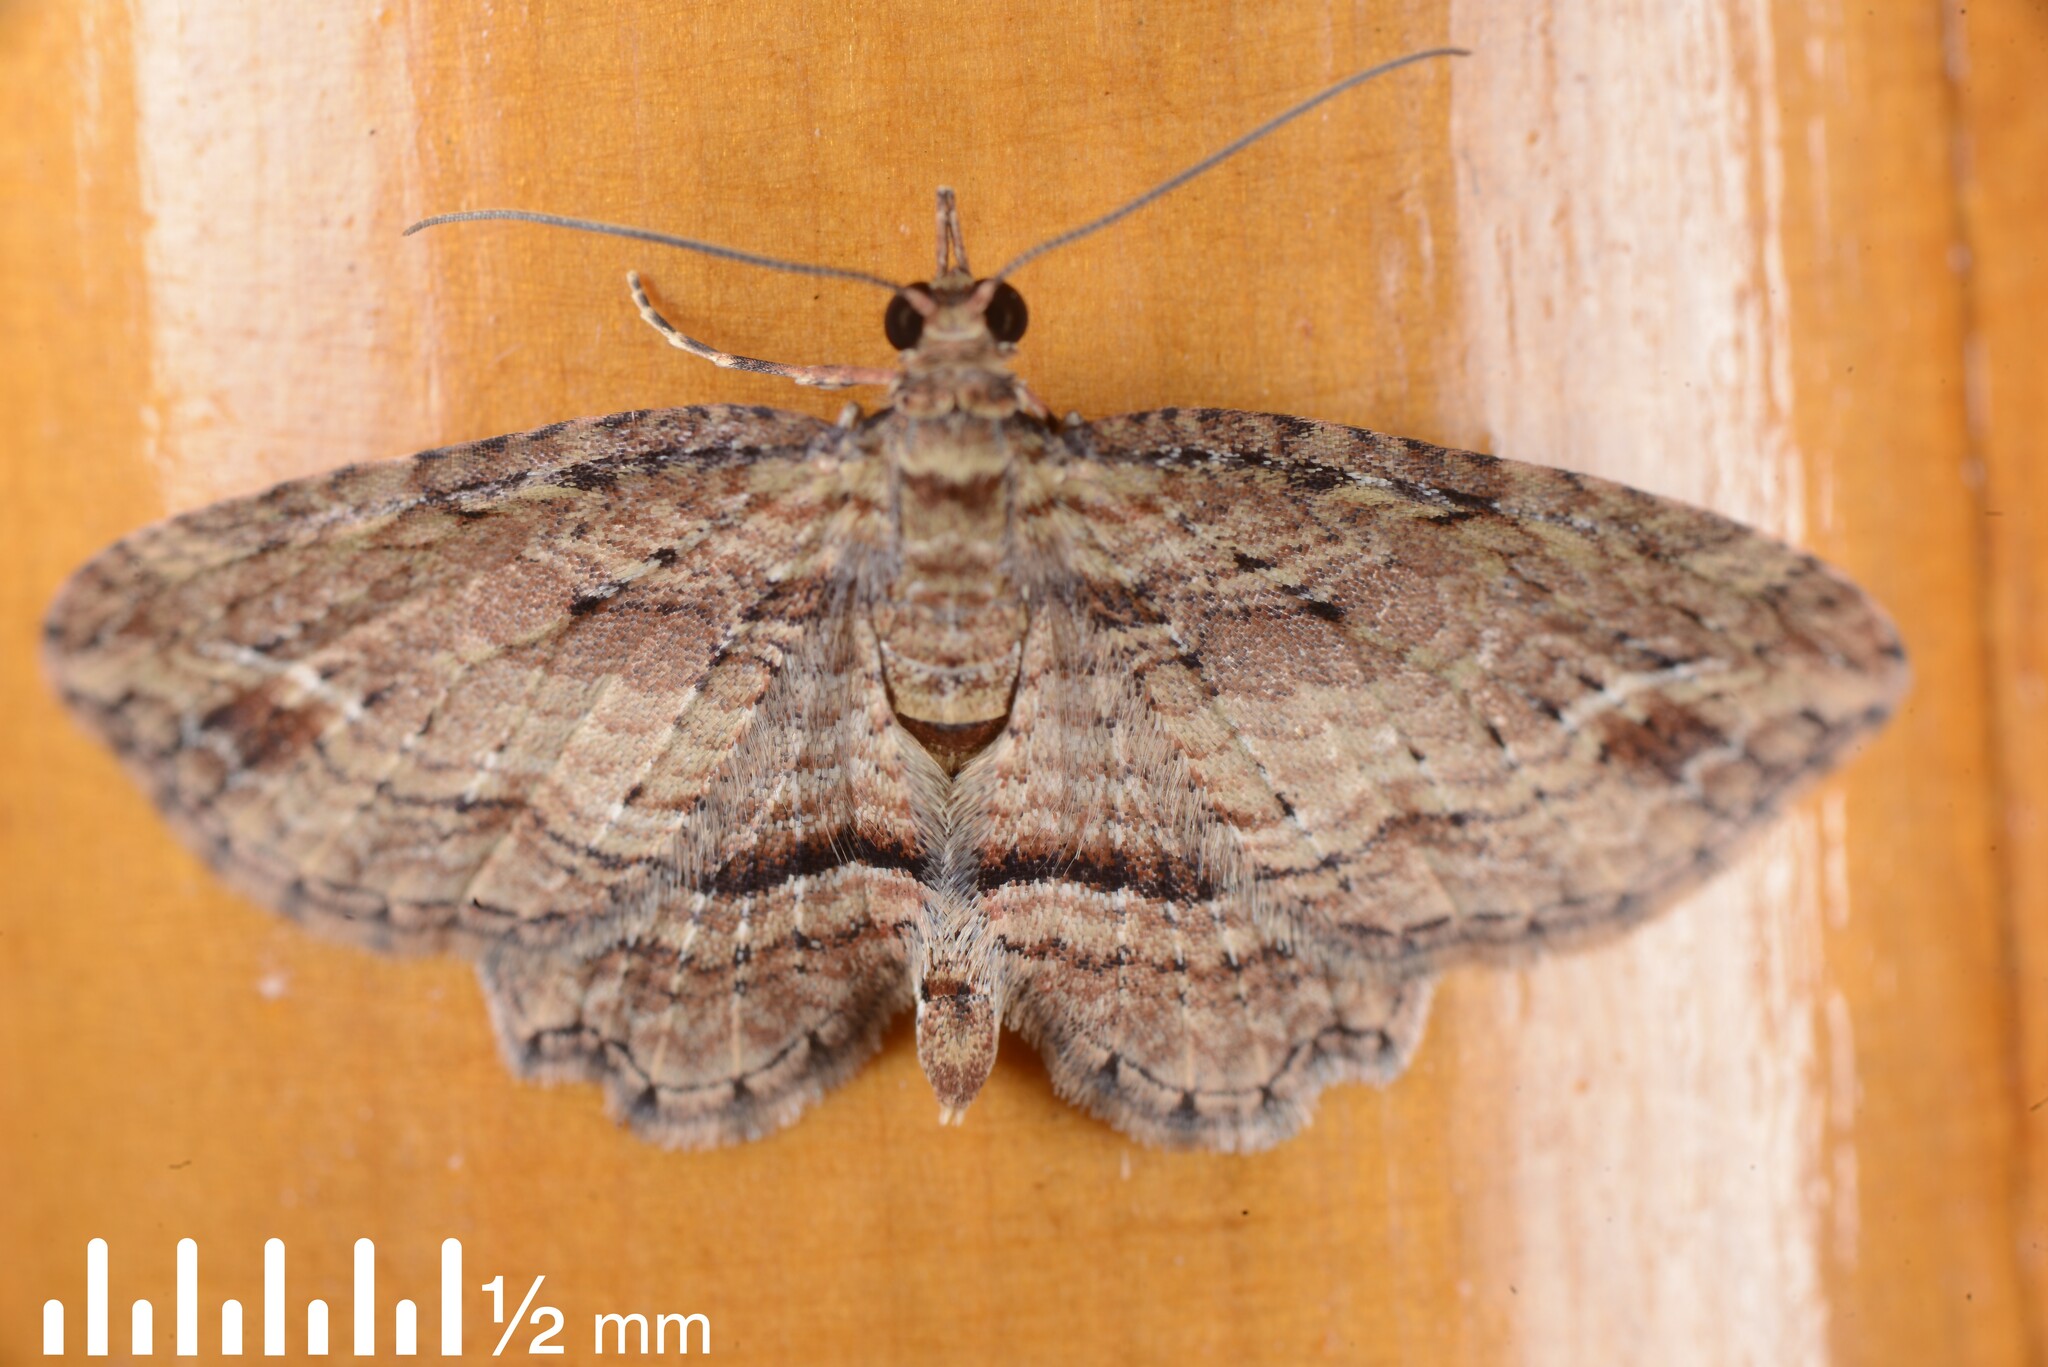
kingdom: Animalia
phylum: Arthropoda
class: Insecta
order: Lepidoptera
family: Geometridae
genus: Chloroclystis
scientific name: Chloroclystis filata
